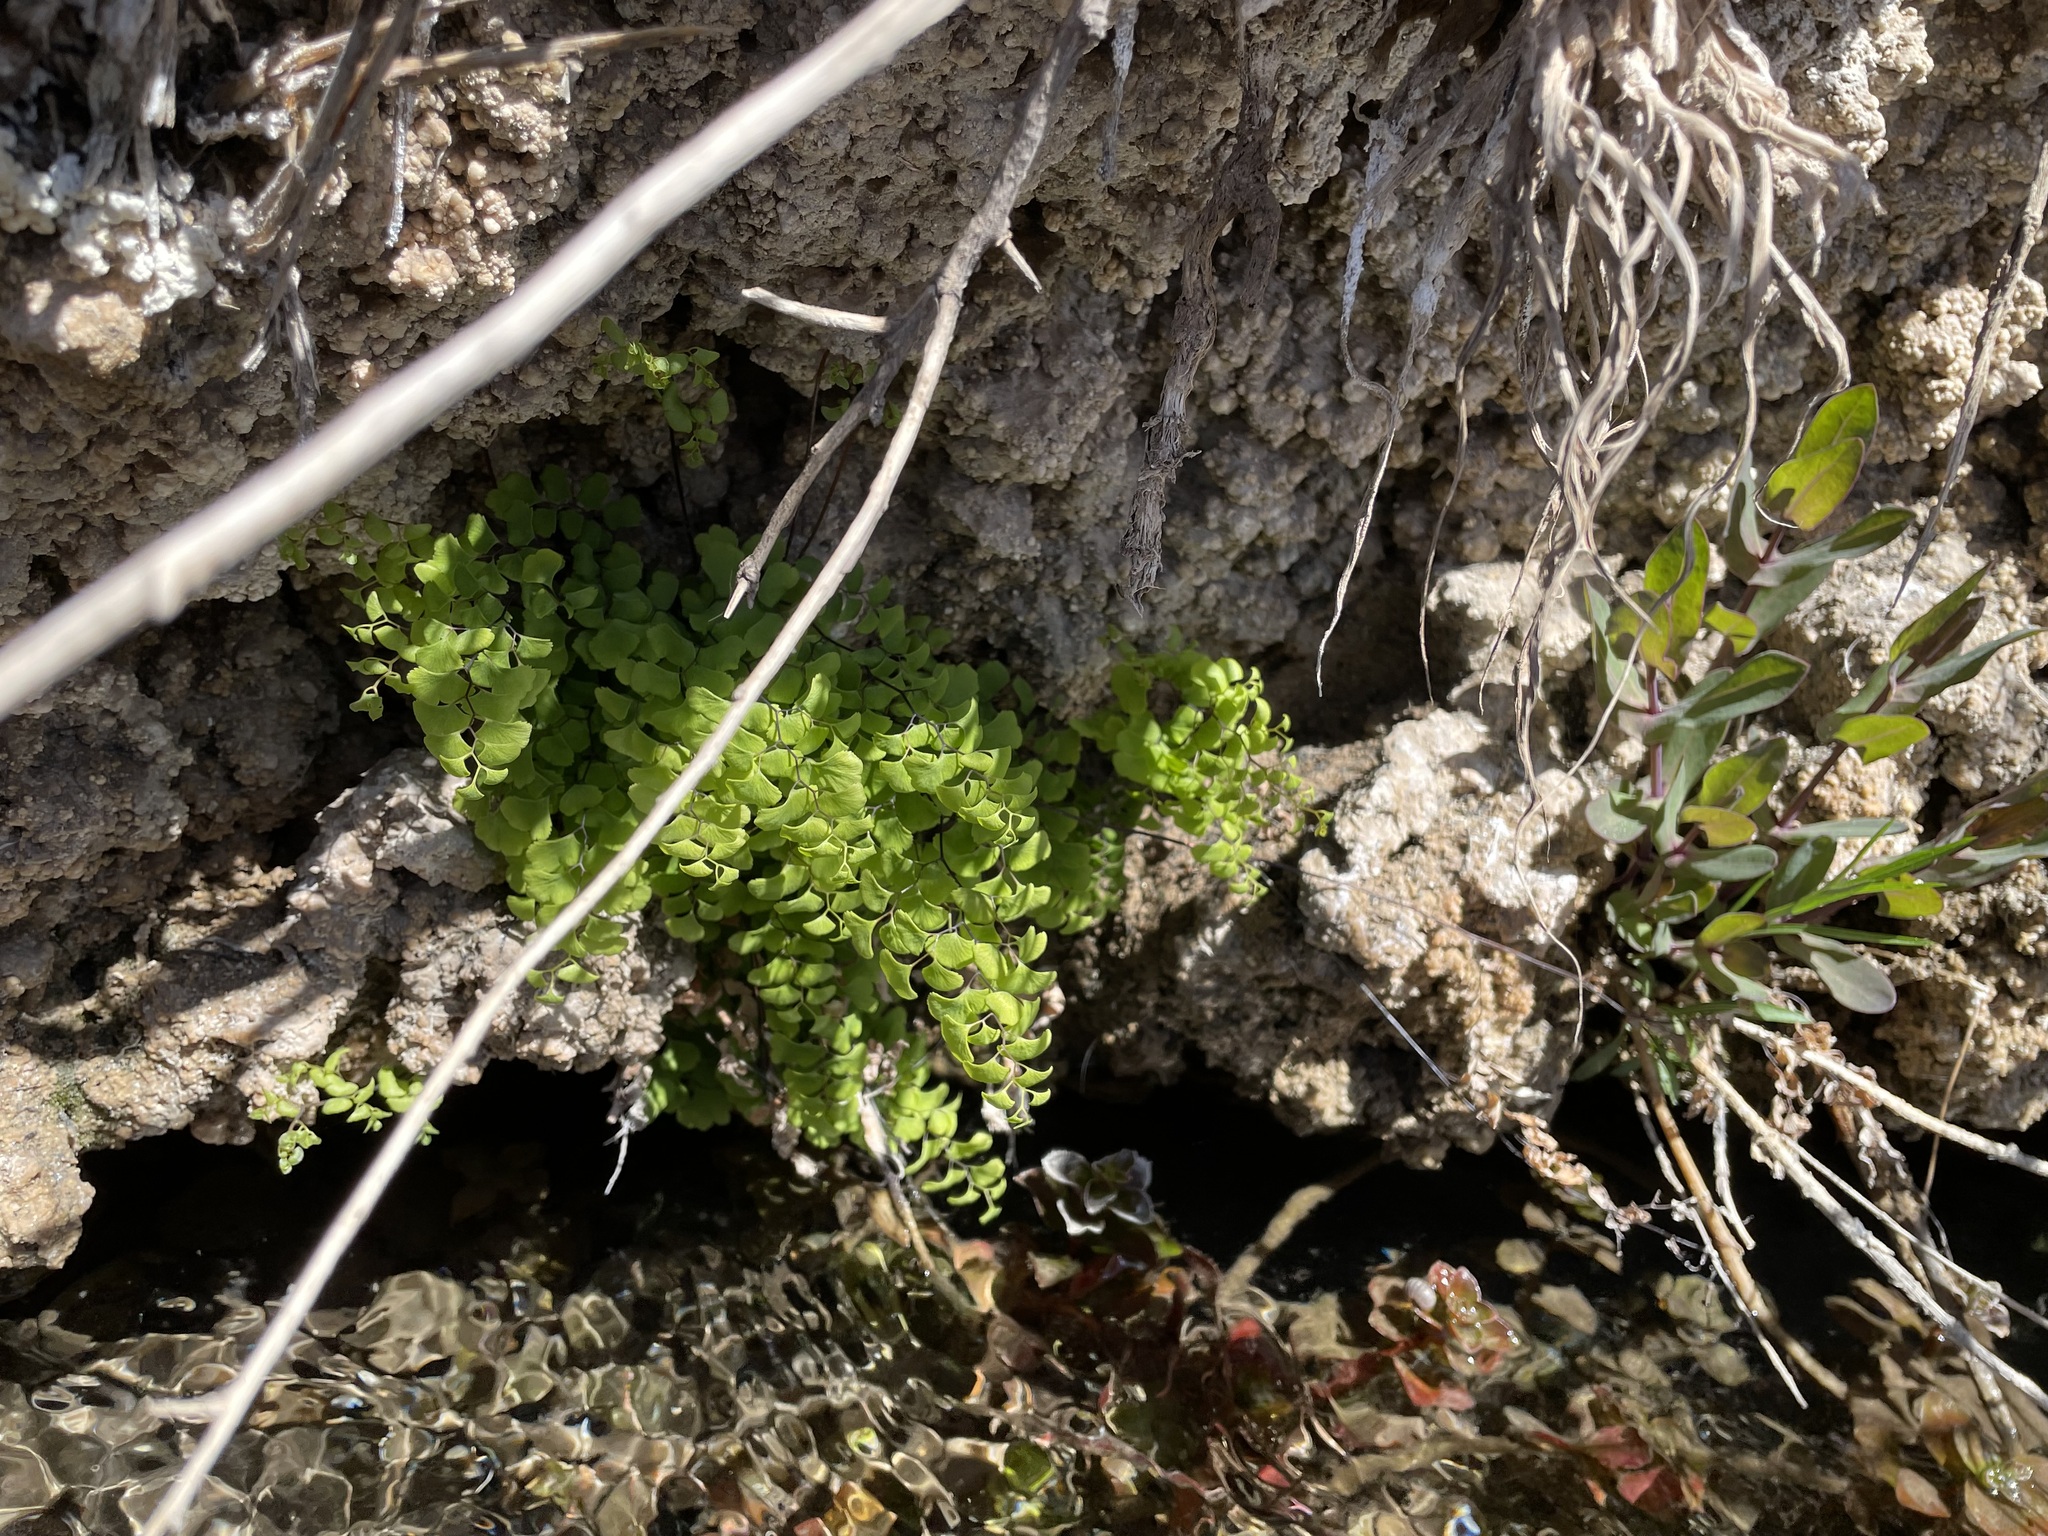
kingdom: Plantae
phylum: Tracheophyta
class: Polypodiopsida
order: Polypodiales
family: Pteridaceae
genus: Adiantum
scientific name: Adiantum capillus-veneris
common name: Maidenhair fern
